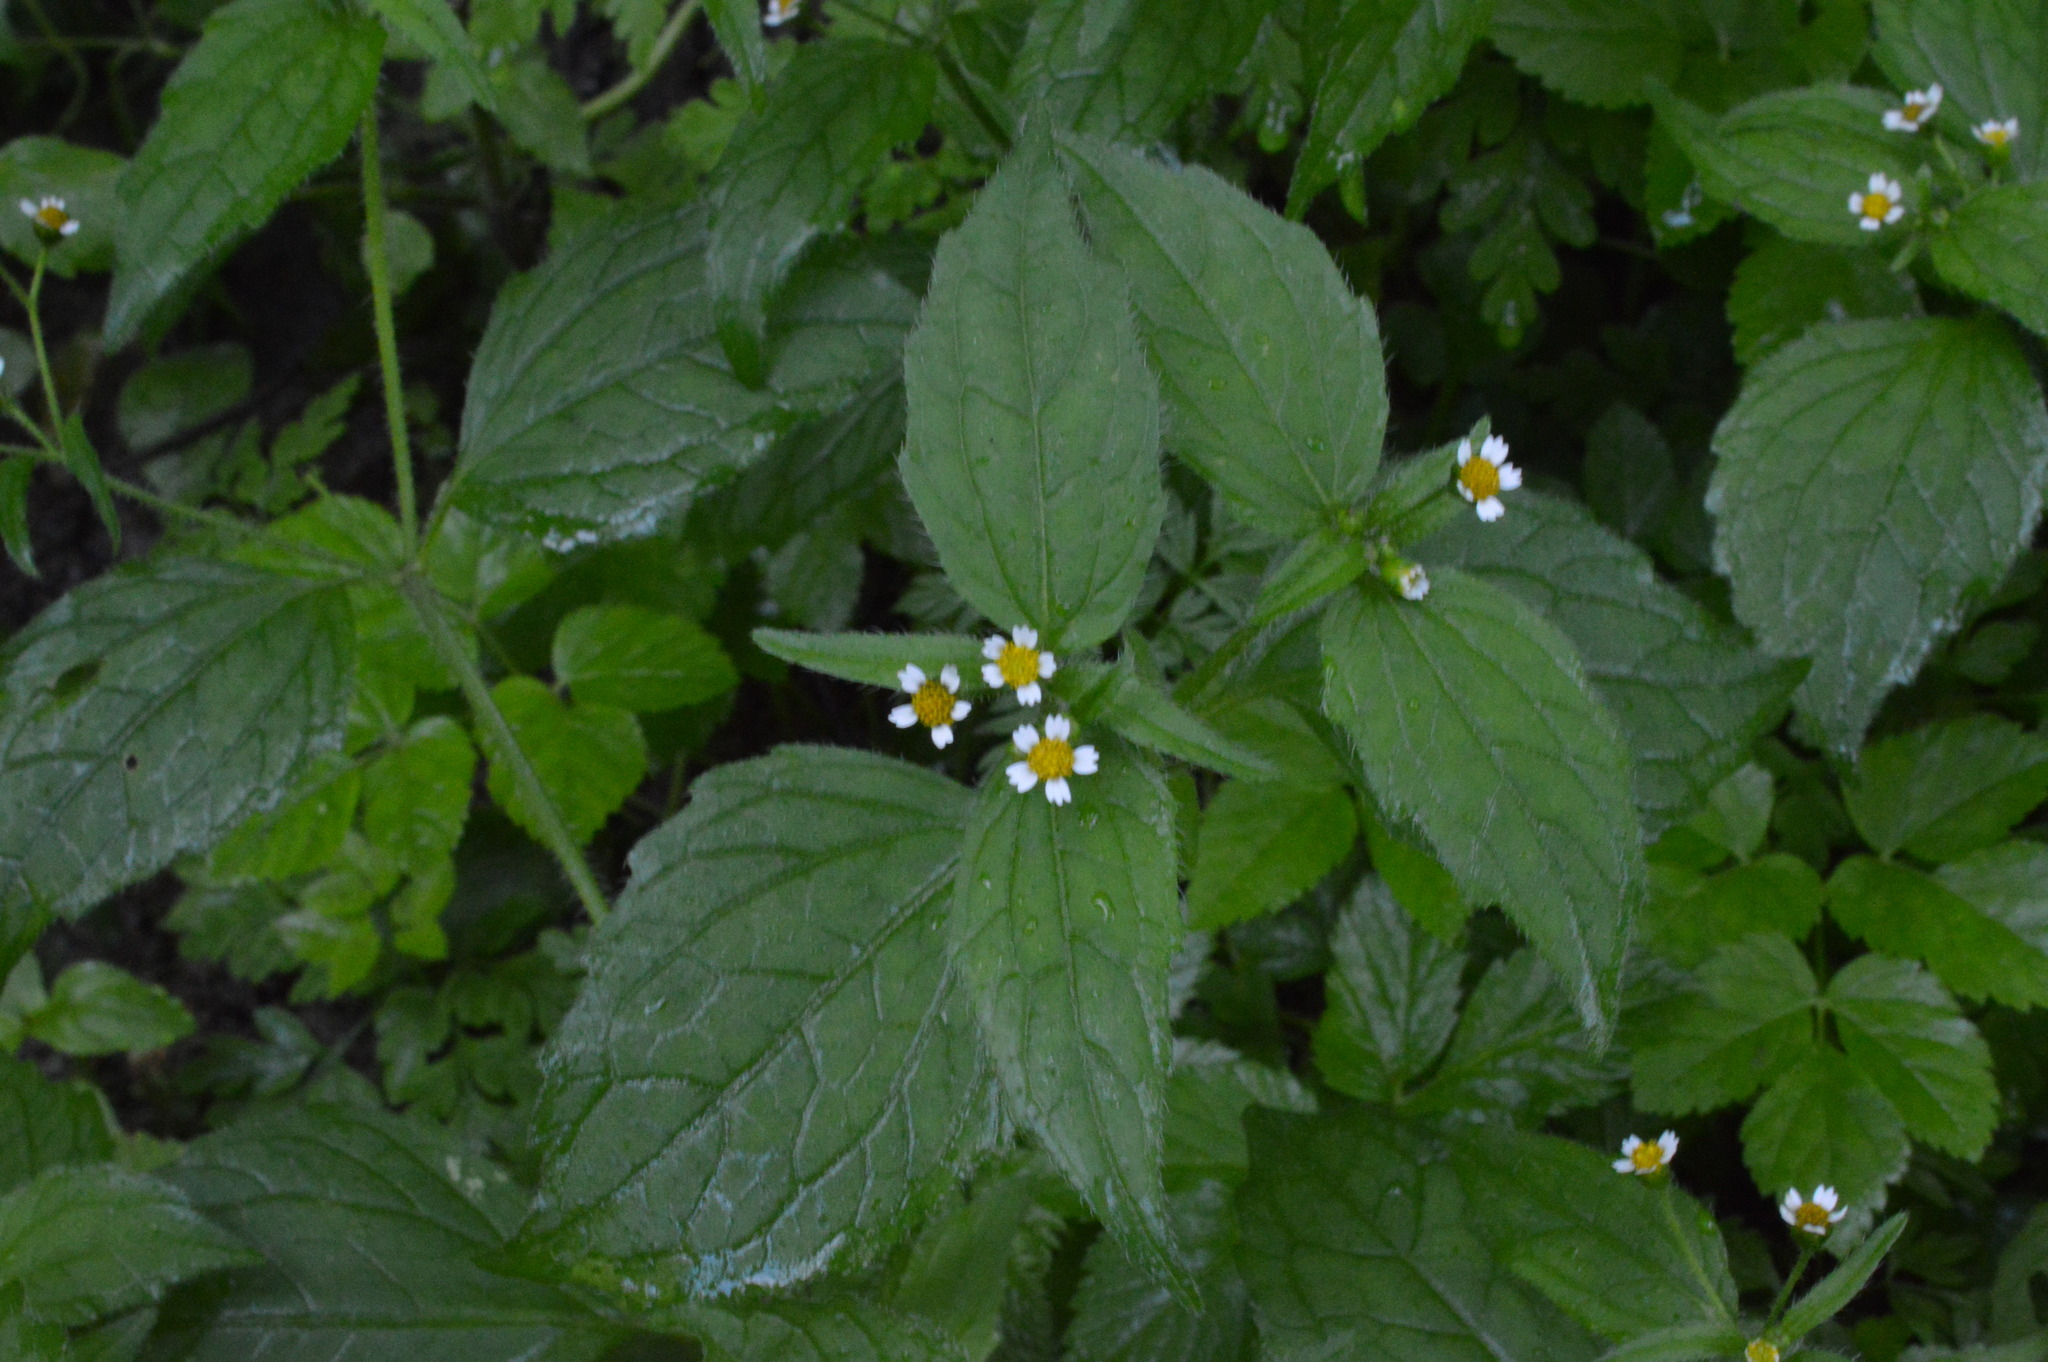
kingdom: Plantae
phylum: Tracheophyta
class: Magnoliopsida
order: Asterales
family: Asteraceae
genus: Galinsoga
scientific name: Galinsoga quadriradiata
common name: Shaggy soldier
